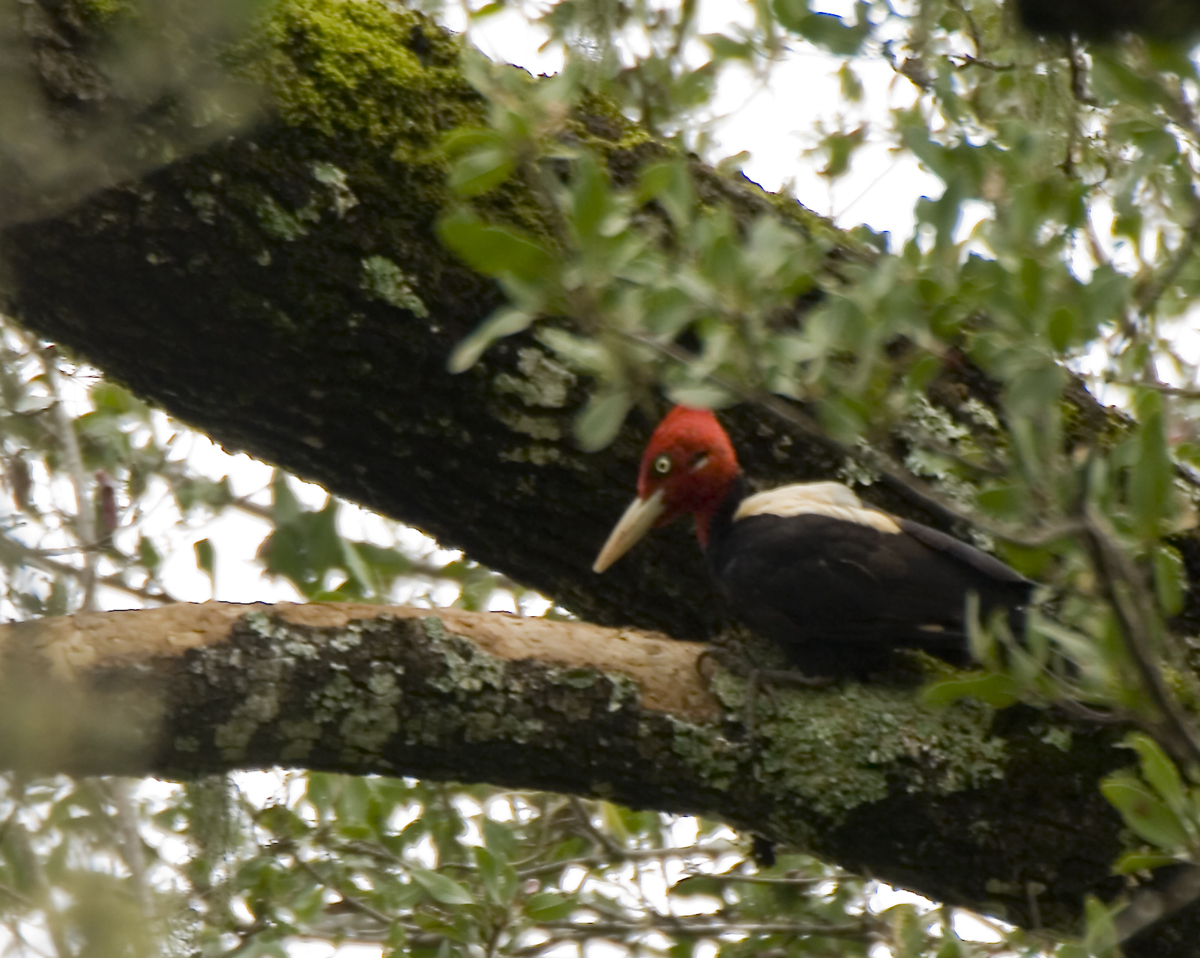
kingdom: Animalia
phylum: Chordata
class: Aves
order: Piciformes
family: Picidae
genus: Campephilus
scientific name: Campephilus leucopogon
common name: Cream-backed woodpecker
